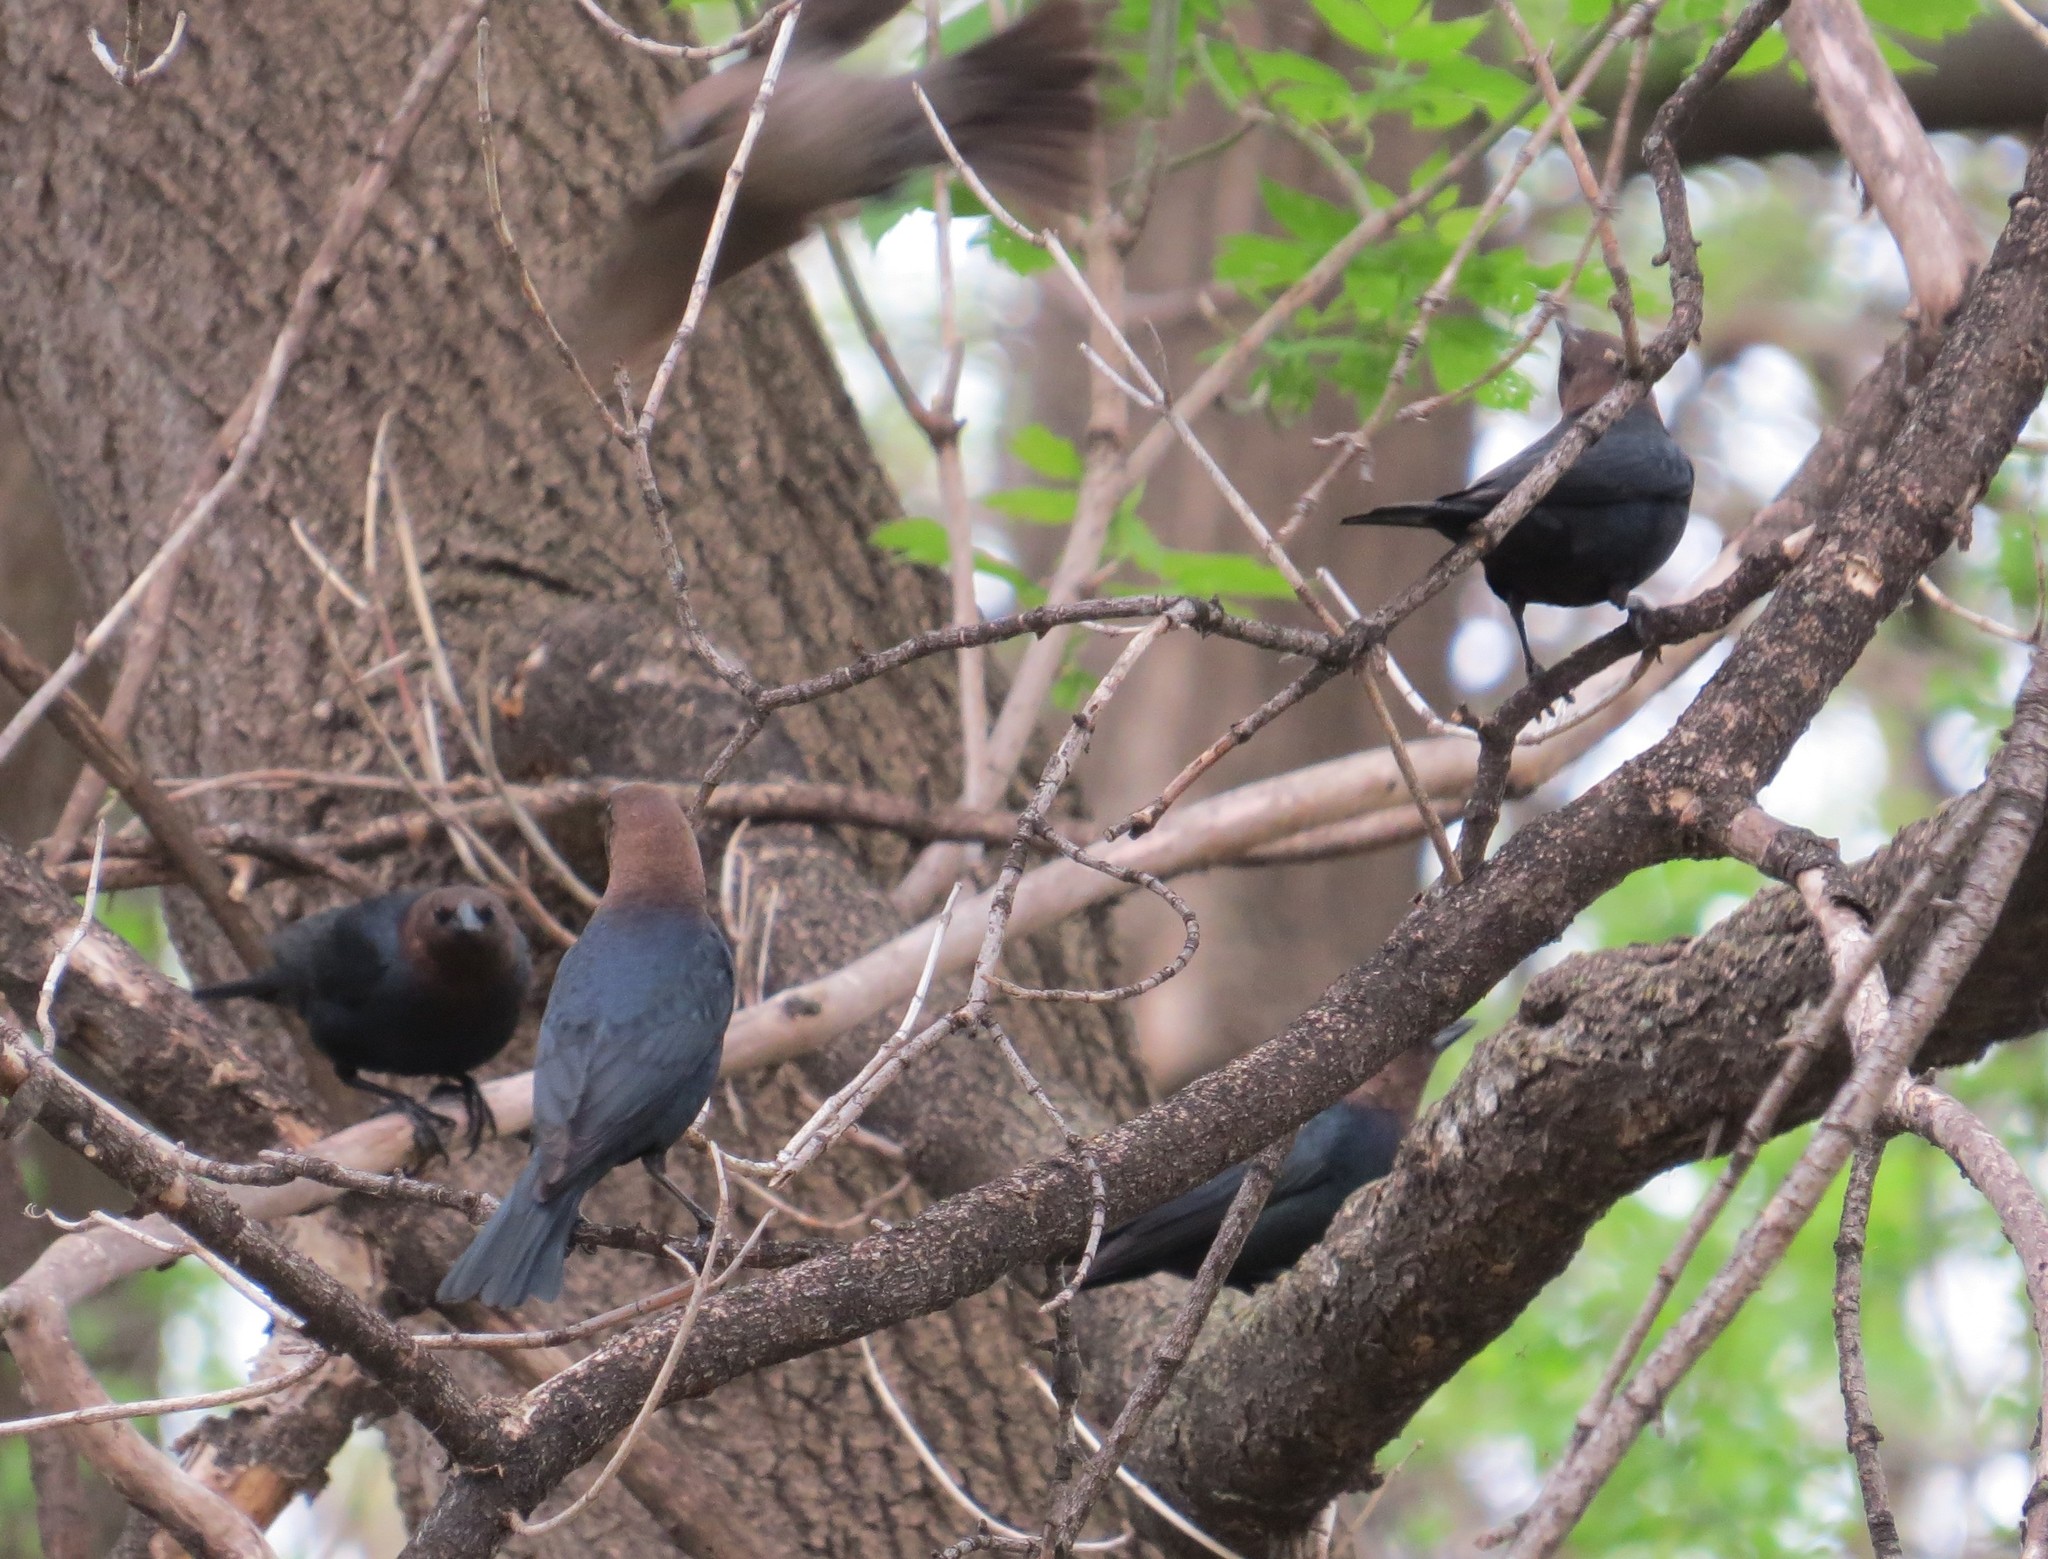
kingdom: Animalia
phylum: Chordata
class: Aves
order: Passeriformes
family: Icteridae
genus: Molothrus
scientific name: Molothrus ater
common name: Brown-headed cowbird
